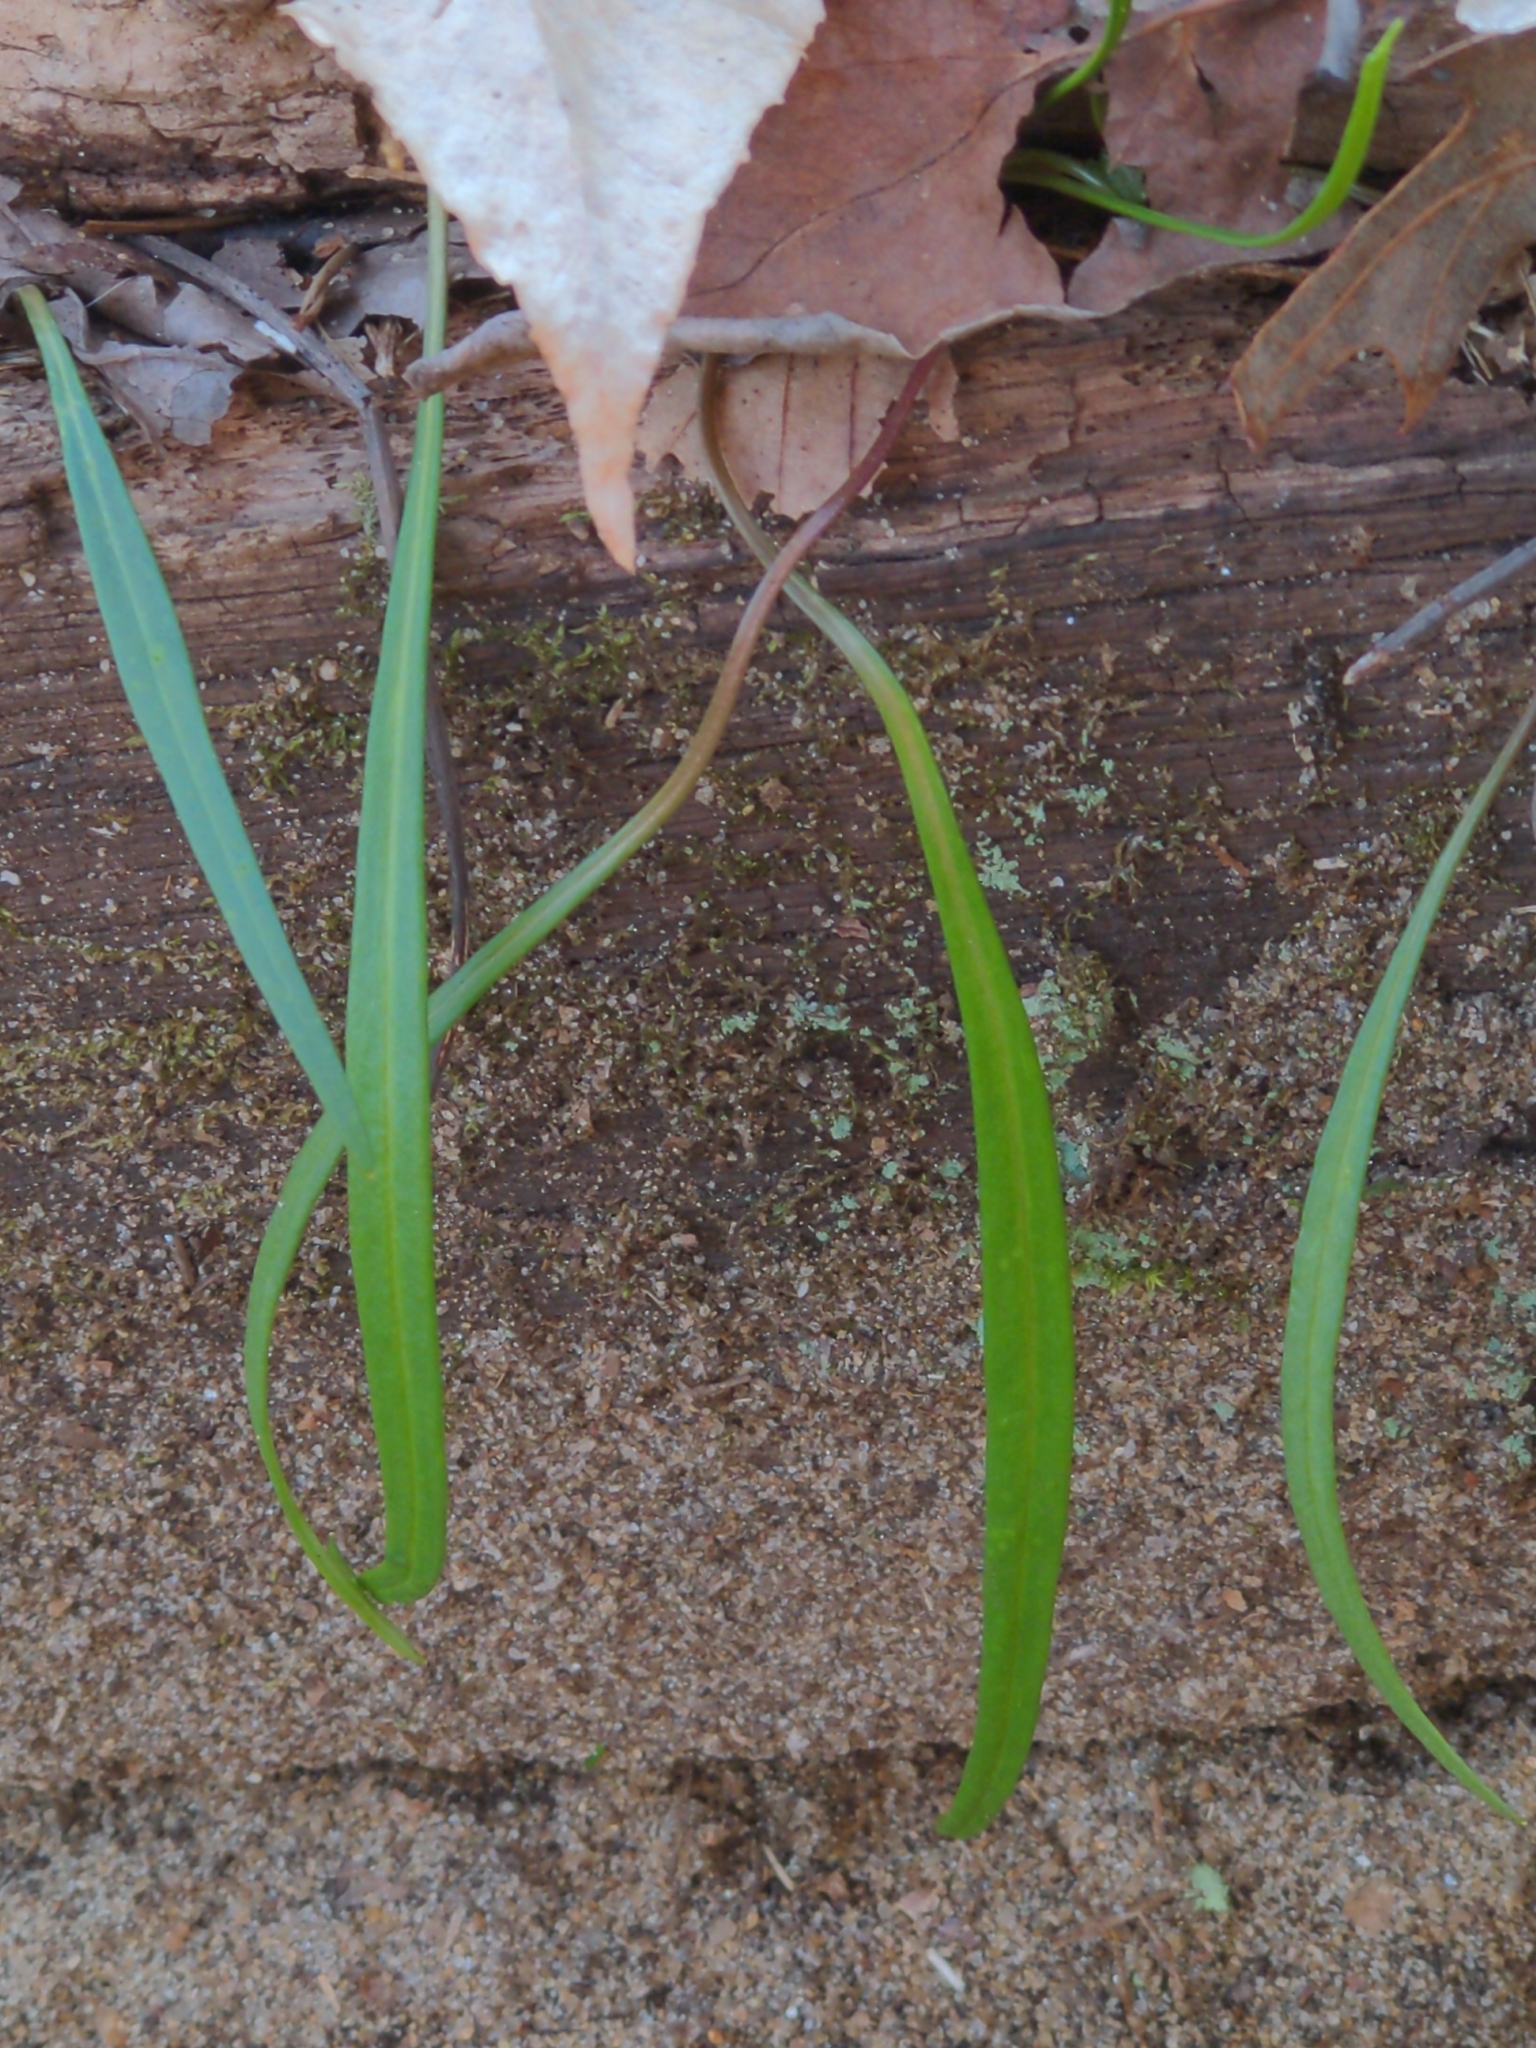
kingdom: Plantae
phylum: Tracheophyta
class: Magnoliopsida
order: Caryophyllales
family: Montiaceae
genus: Claytonia
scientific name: Claytonia virginica
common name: Virginia springbeauty
